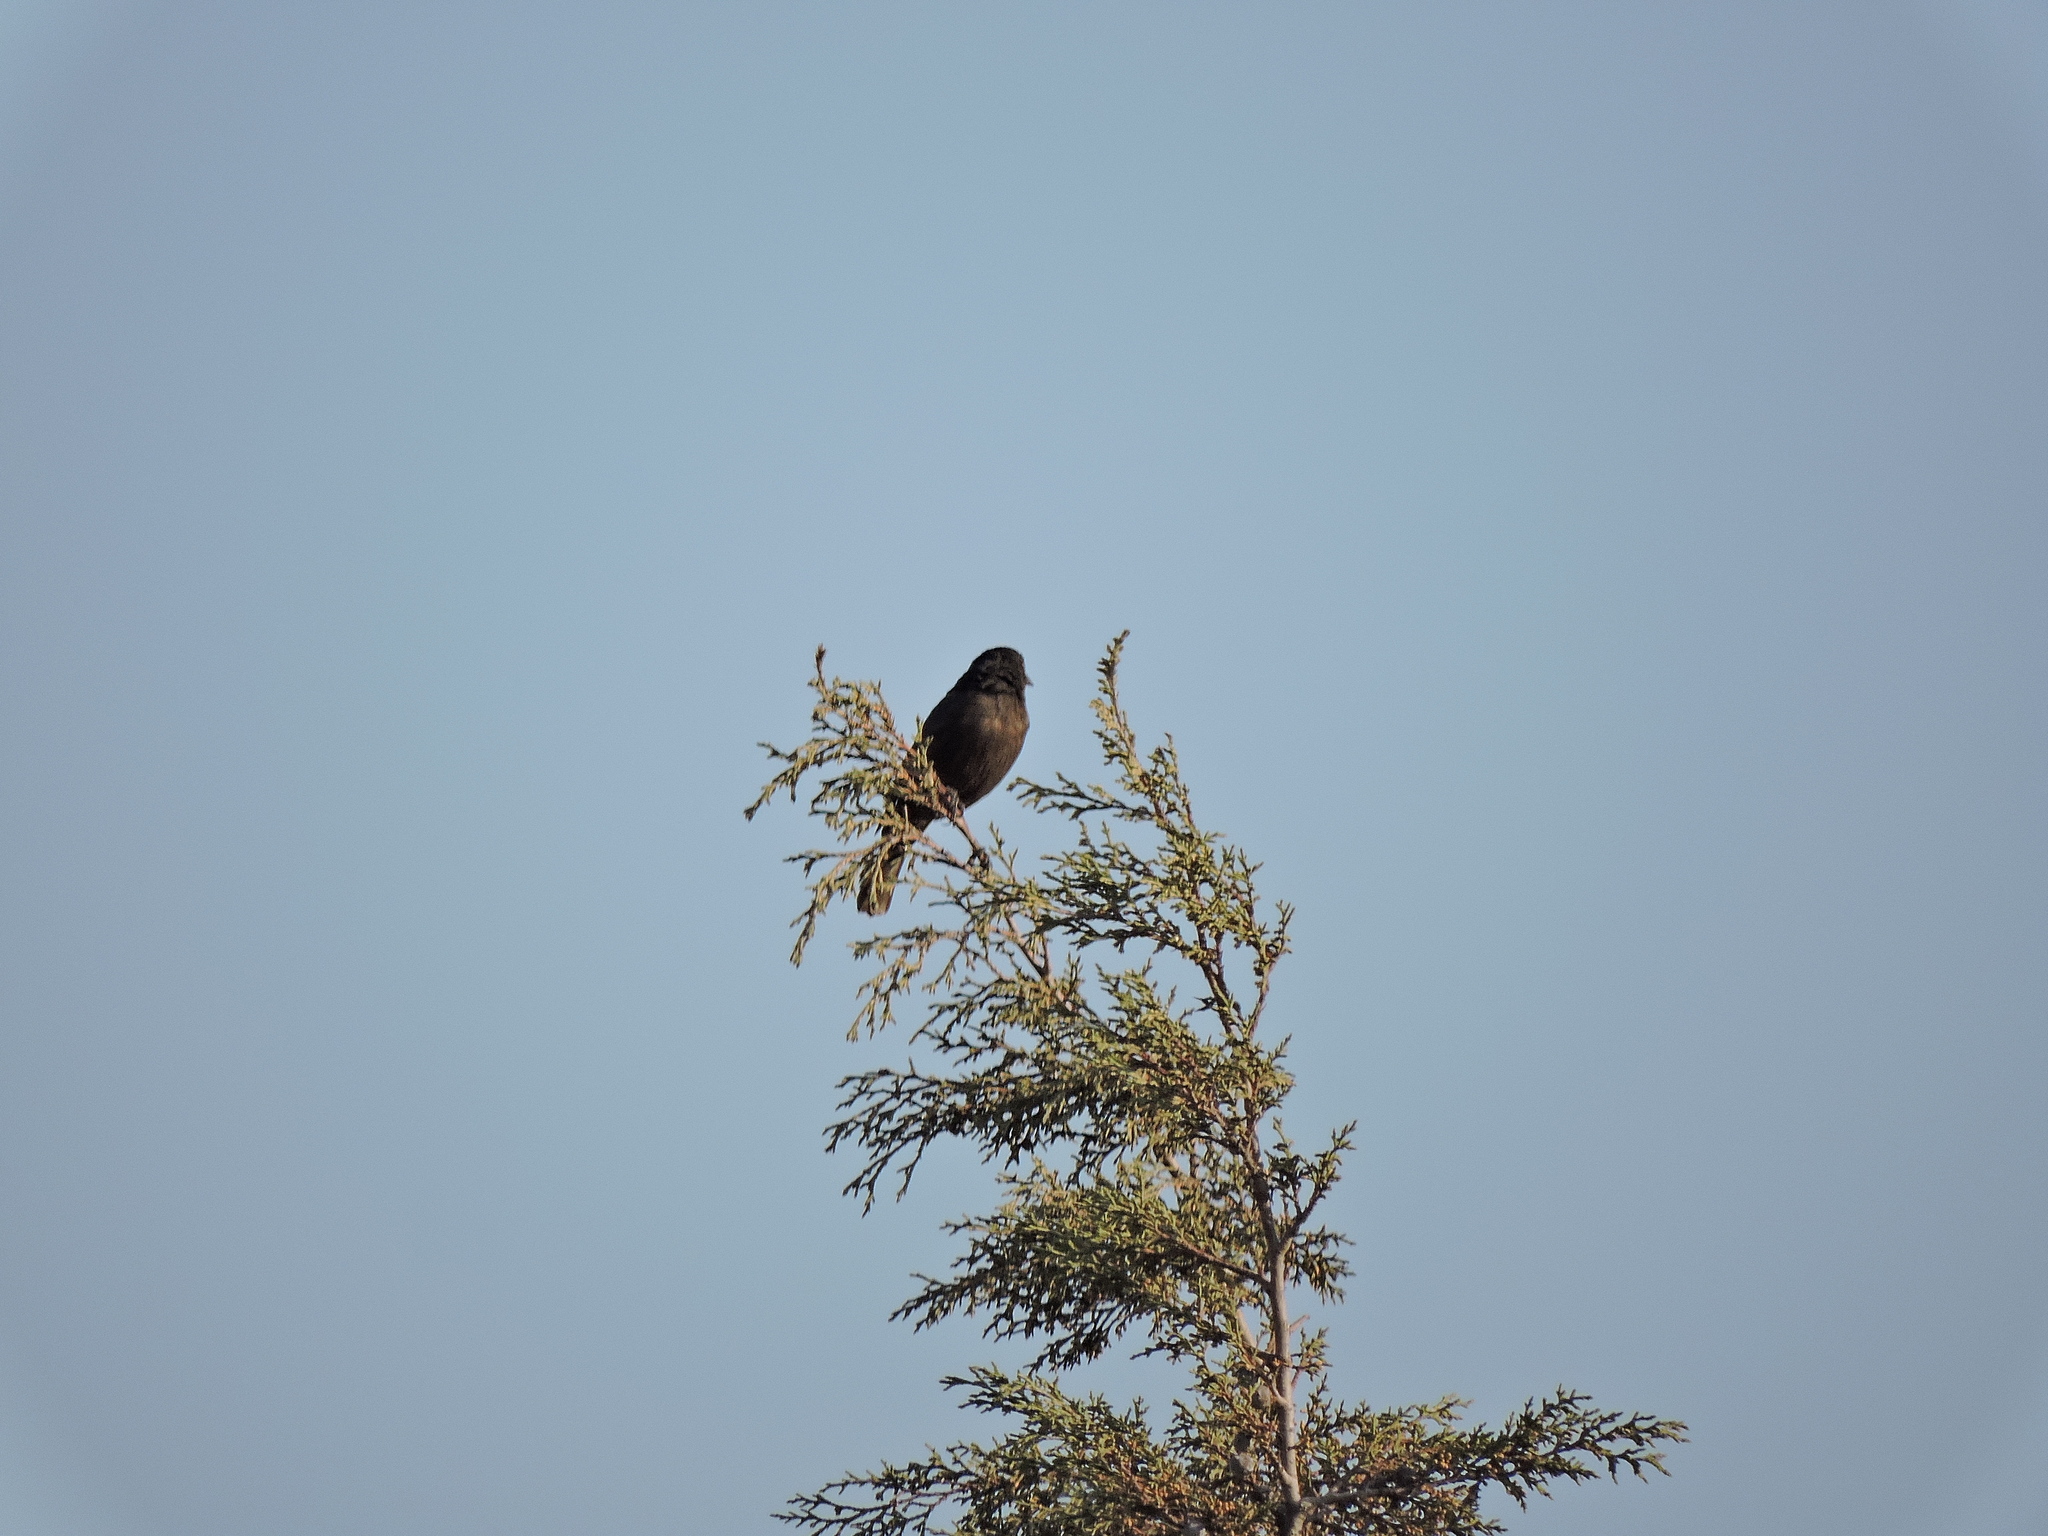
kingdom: Animalia
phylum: Chordata
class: Aves
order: Passeriformes
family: Icteridae
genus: Molothrus
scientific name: Molothrus aeneus
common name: Bronzed cowbird
